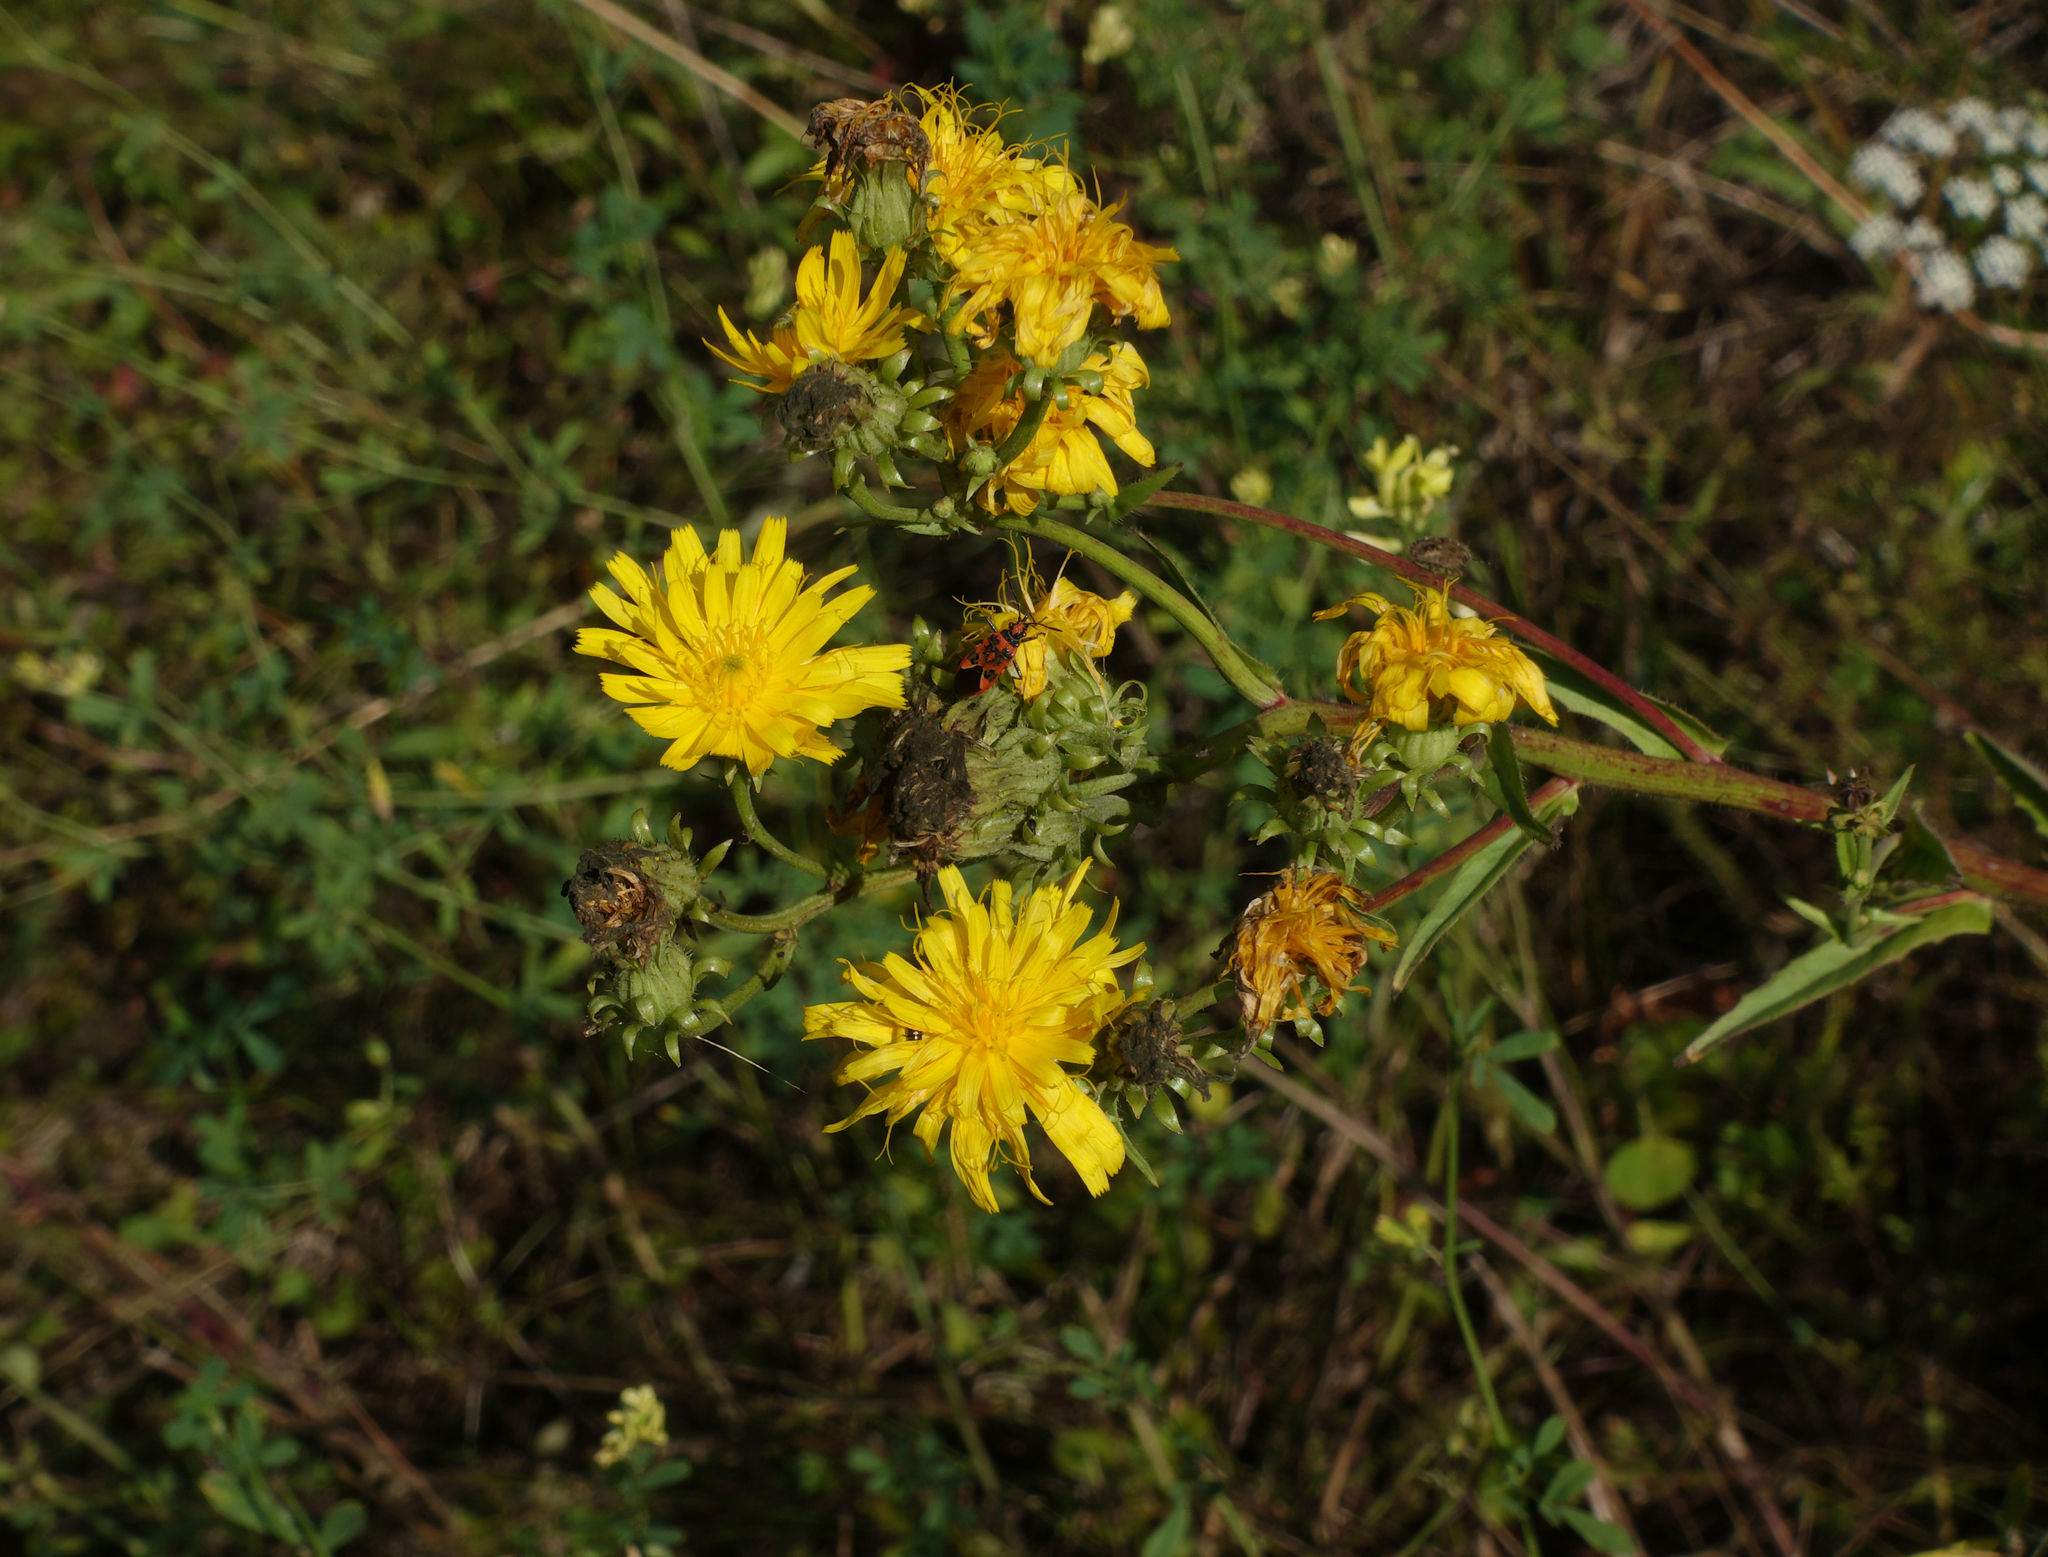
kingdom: Plantae
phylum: Tracheophyta
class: Magnoliopsida
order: Asterales
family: Asteraceae
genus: Crepis
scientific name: Crepis sibirica
